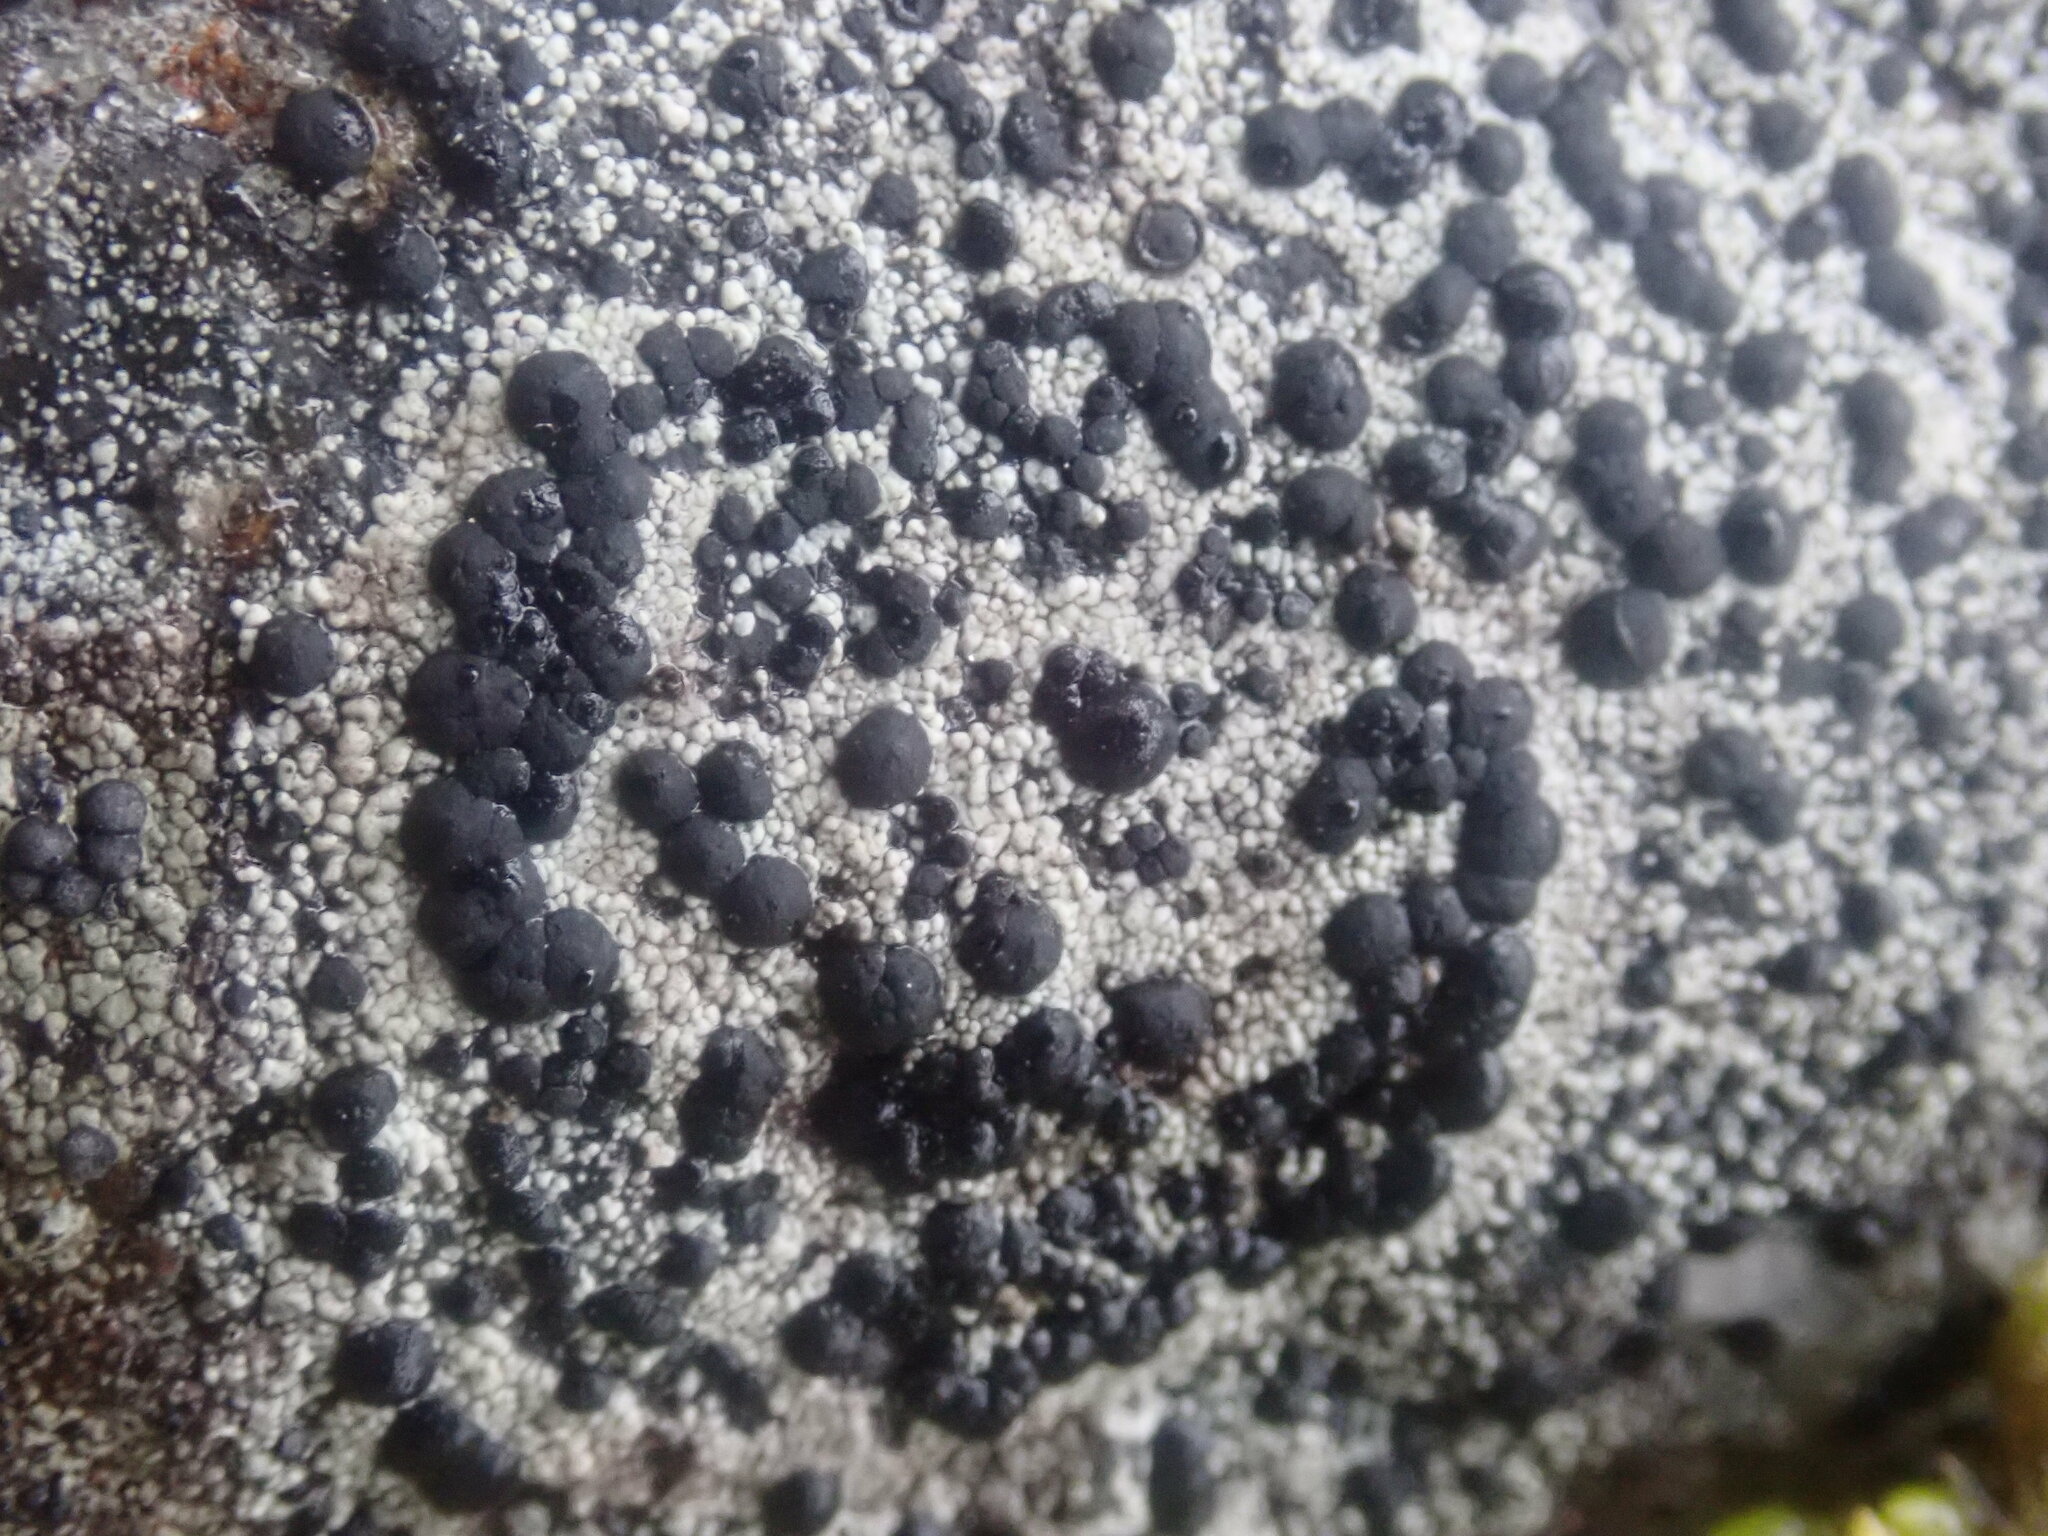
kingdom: Fungi
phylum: Ascomycota
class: Lecanoromycetes
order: Lecideales
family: Lecideaceae
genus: Porpidia
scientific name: Porpidia crustulata
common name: Concentric boulder lichen
